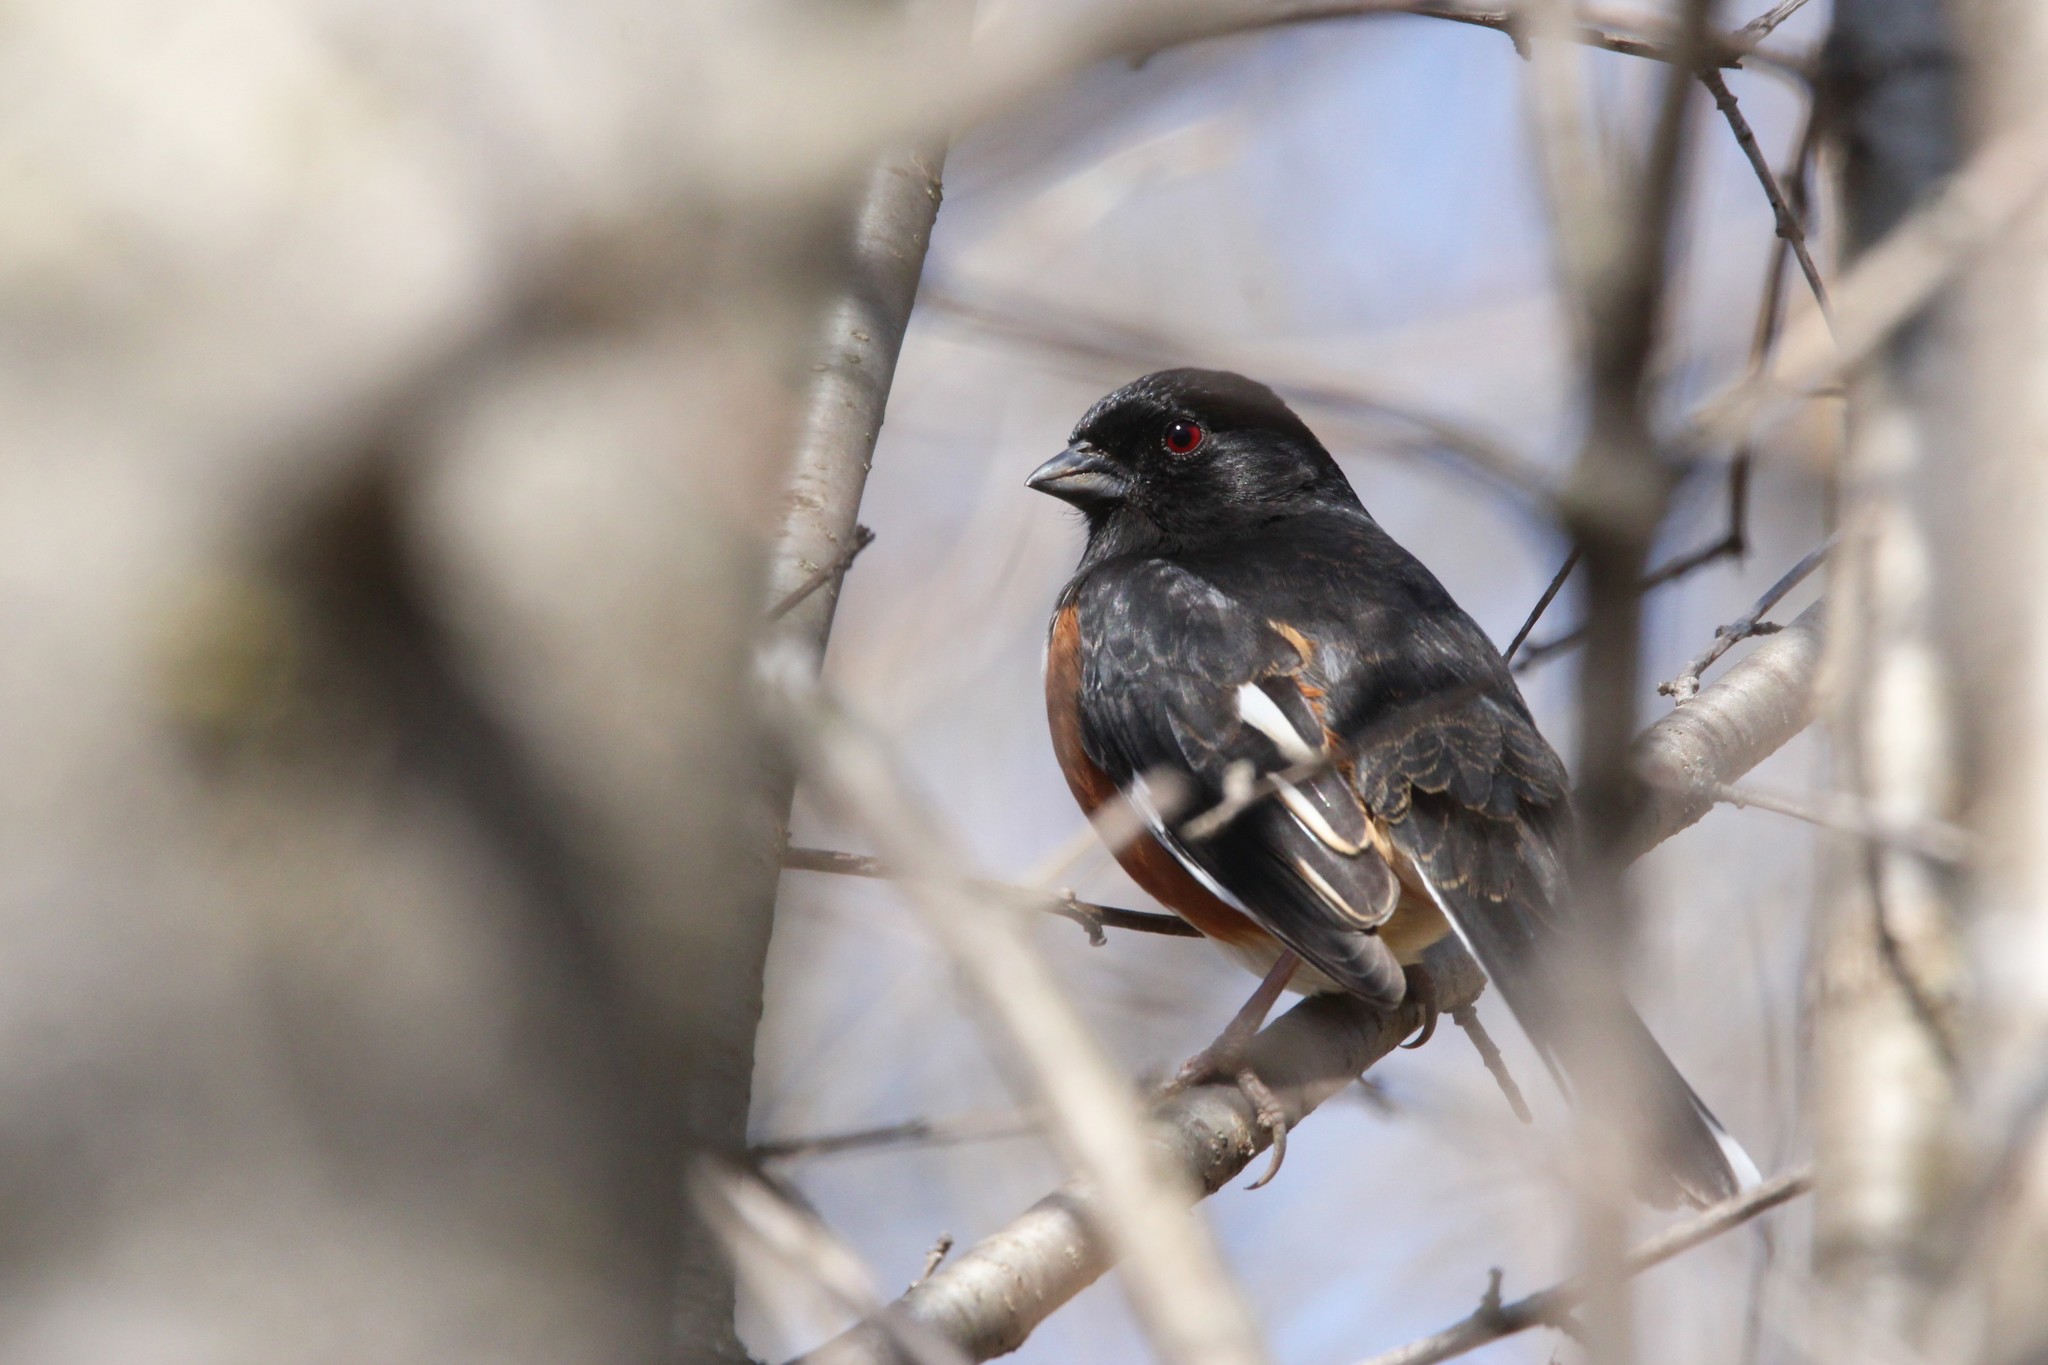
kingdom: Animalia
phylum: Chordata
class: Aves
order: Passeriformes
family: Passerellidae
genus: Pipilo
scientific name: Pipilo erythrophthalmus
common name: Eastern towhee
